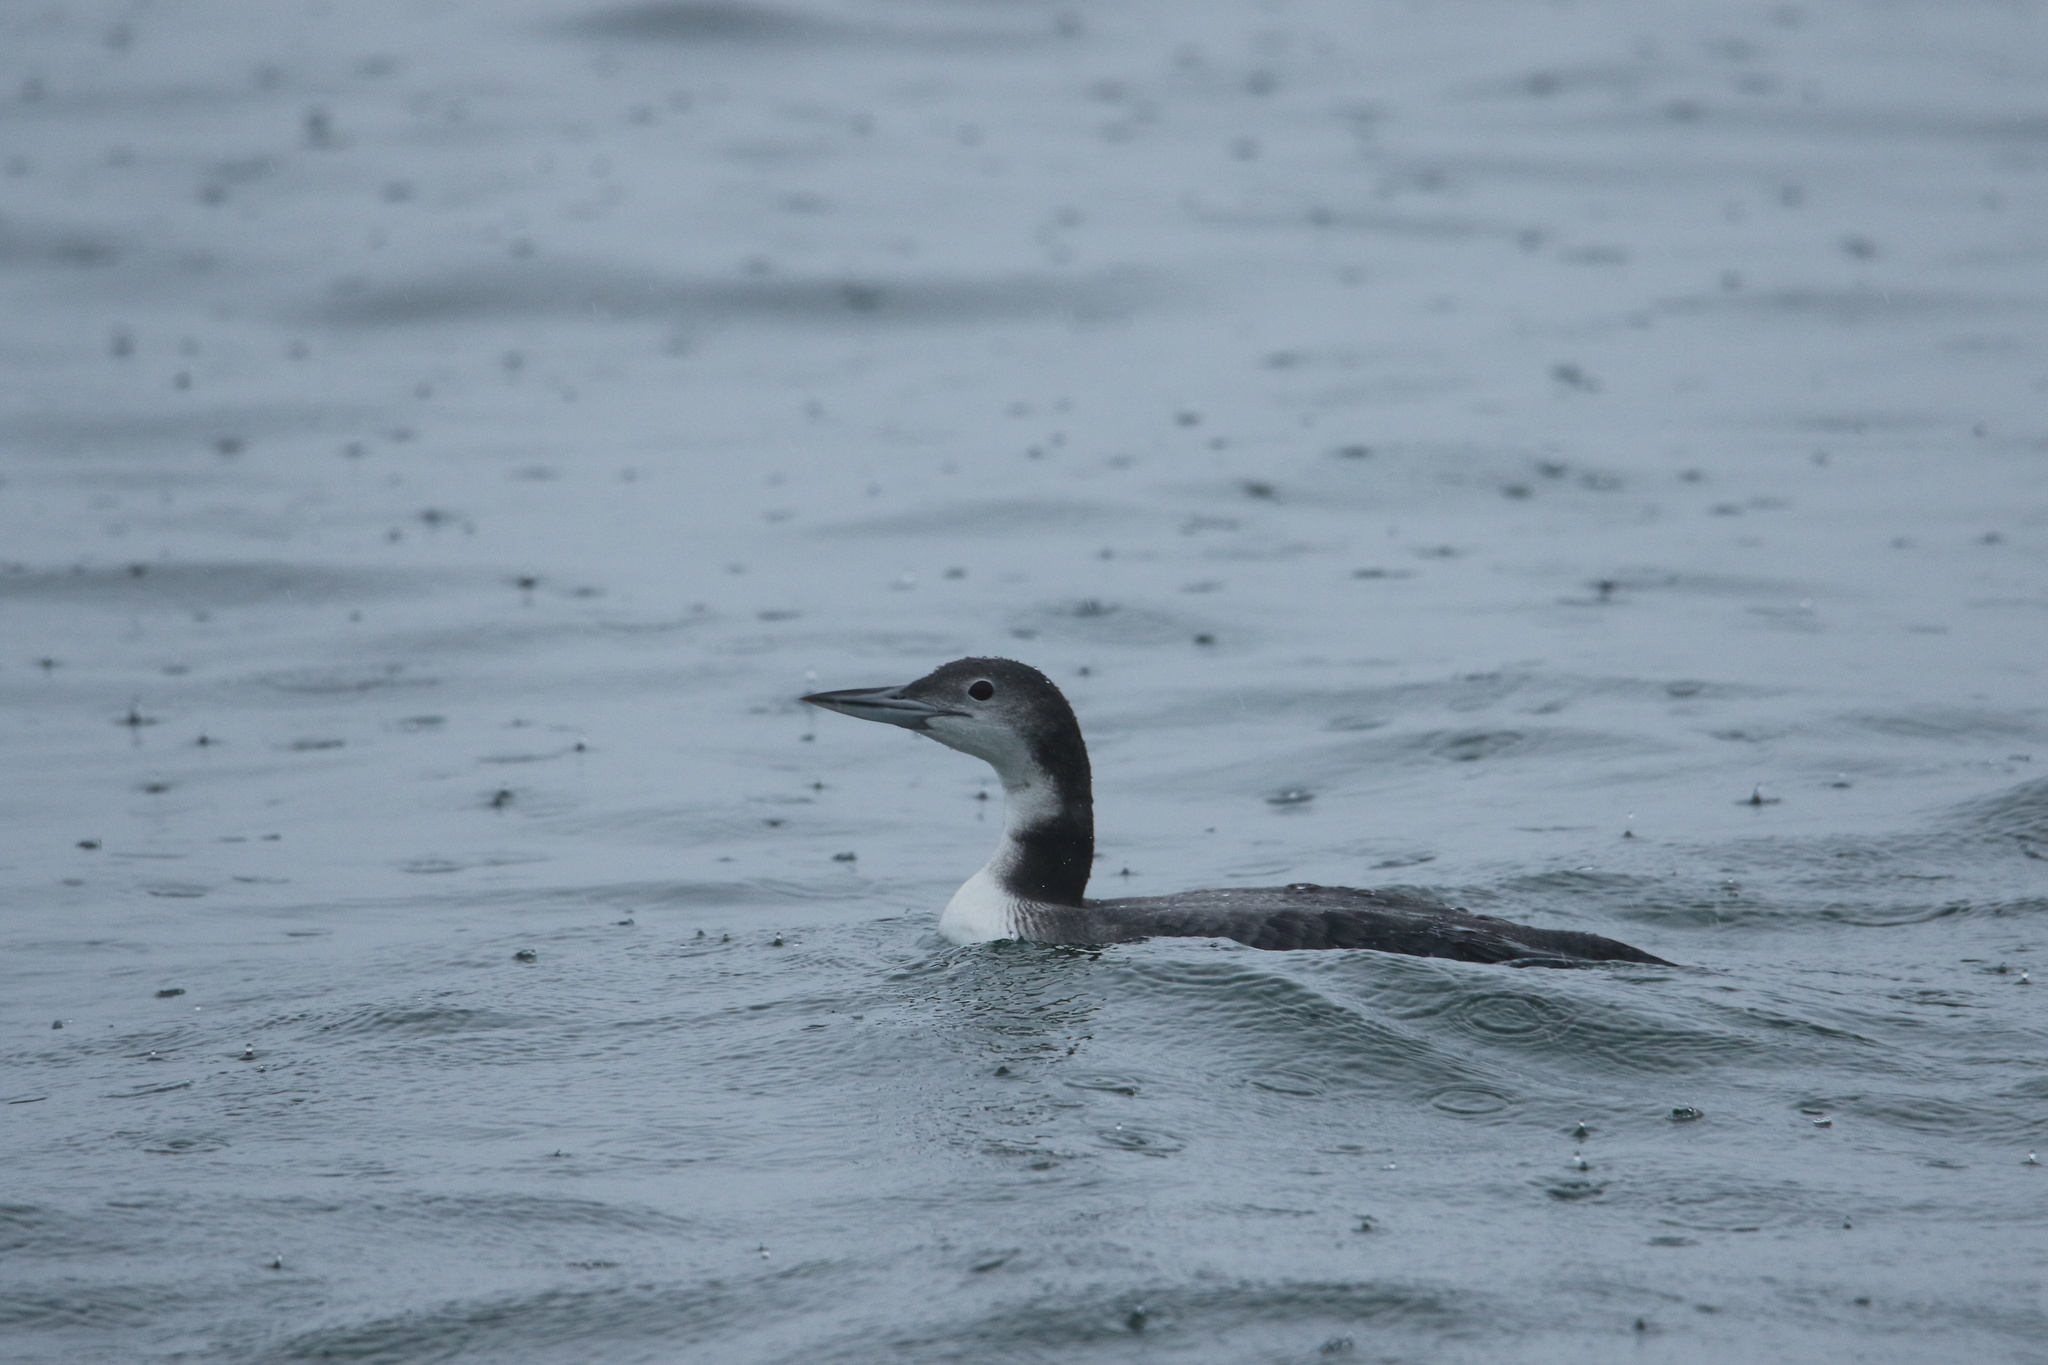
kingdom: Animalia
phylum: Chordata
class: Aves
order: Gaviiformes
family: Gaviidae
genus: Gavia
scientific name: Gavia immer
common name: Common loon
